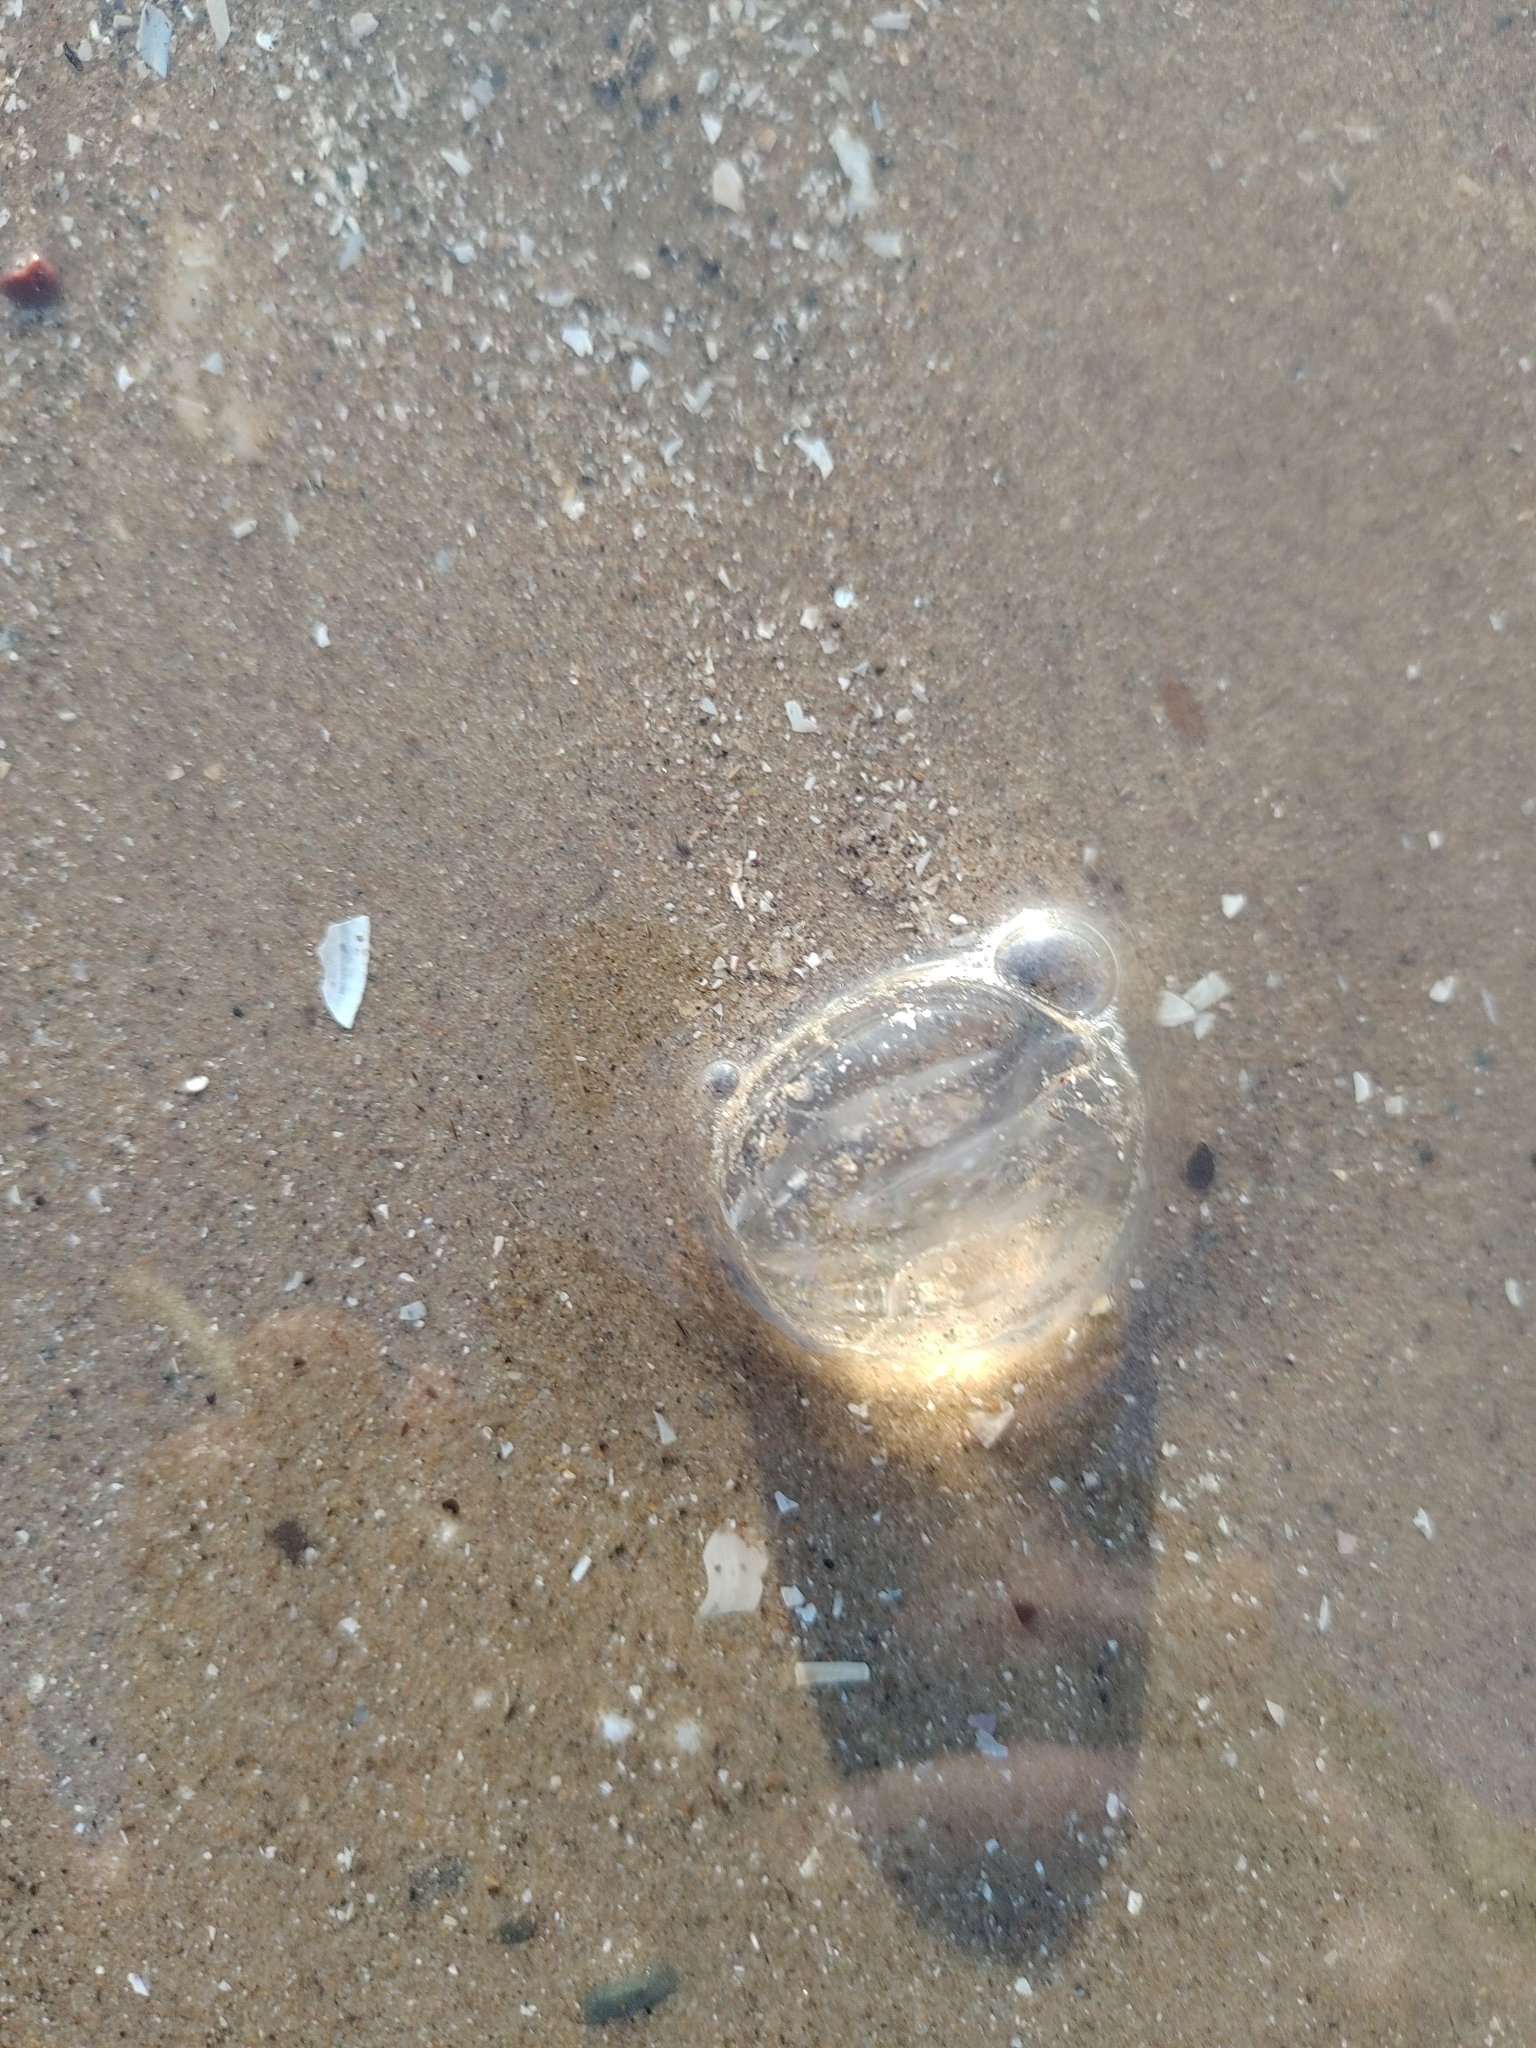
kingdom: Animalia
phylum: Ctenophora
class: Tentaculata
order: Cydippida
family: Pleurobrachiidae
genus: Pleurobrachia
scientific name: Pleurobrachia pileus
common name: Sea gooseberry
